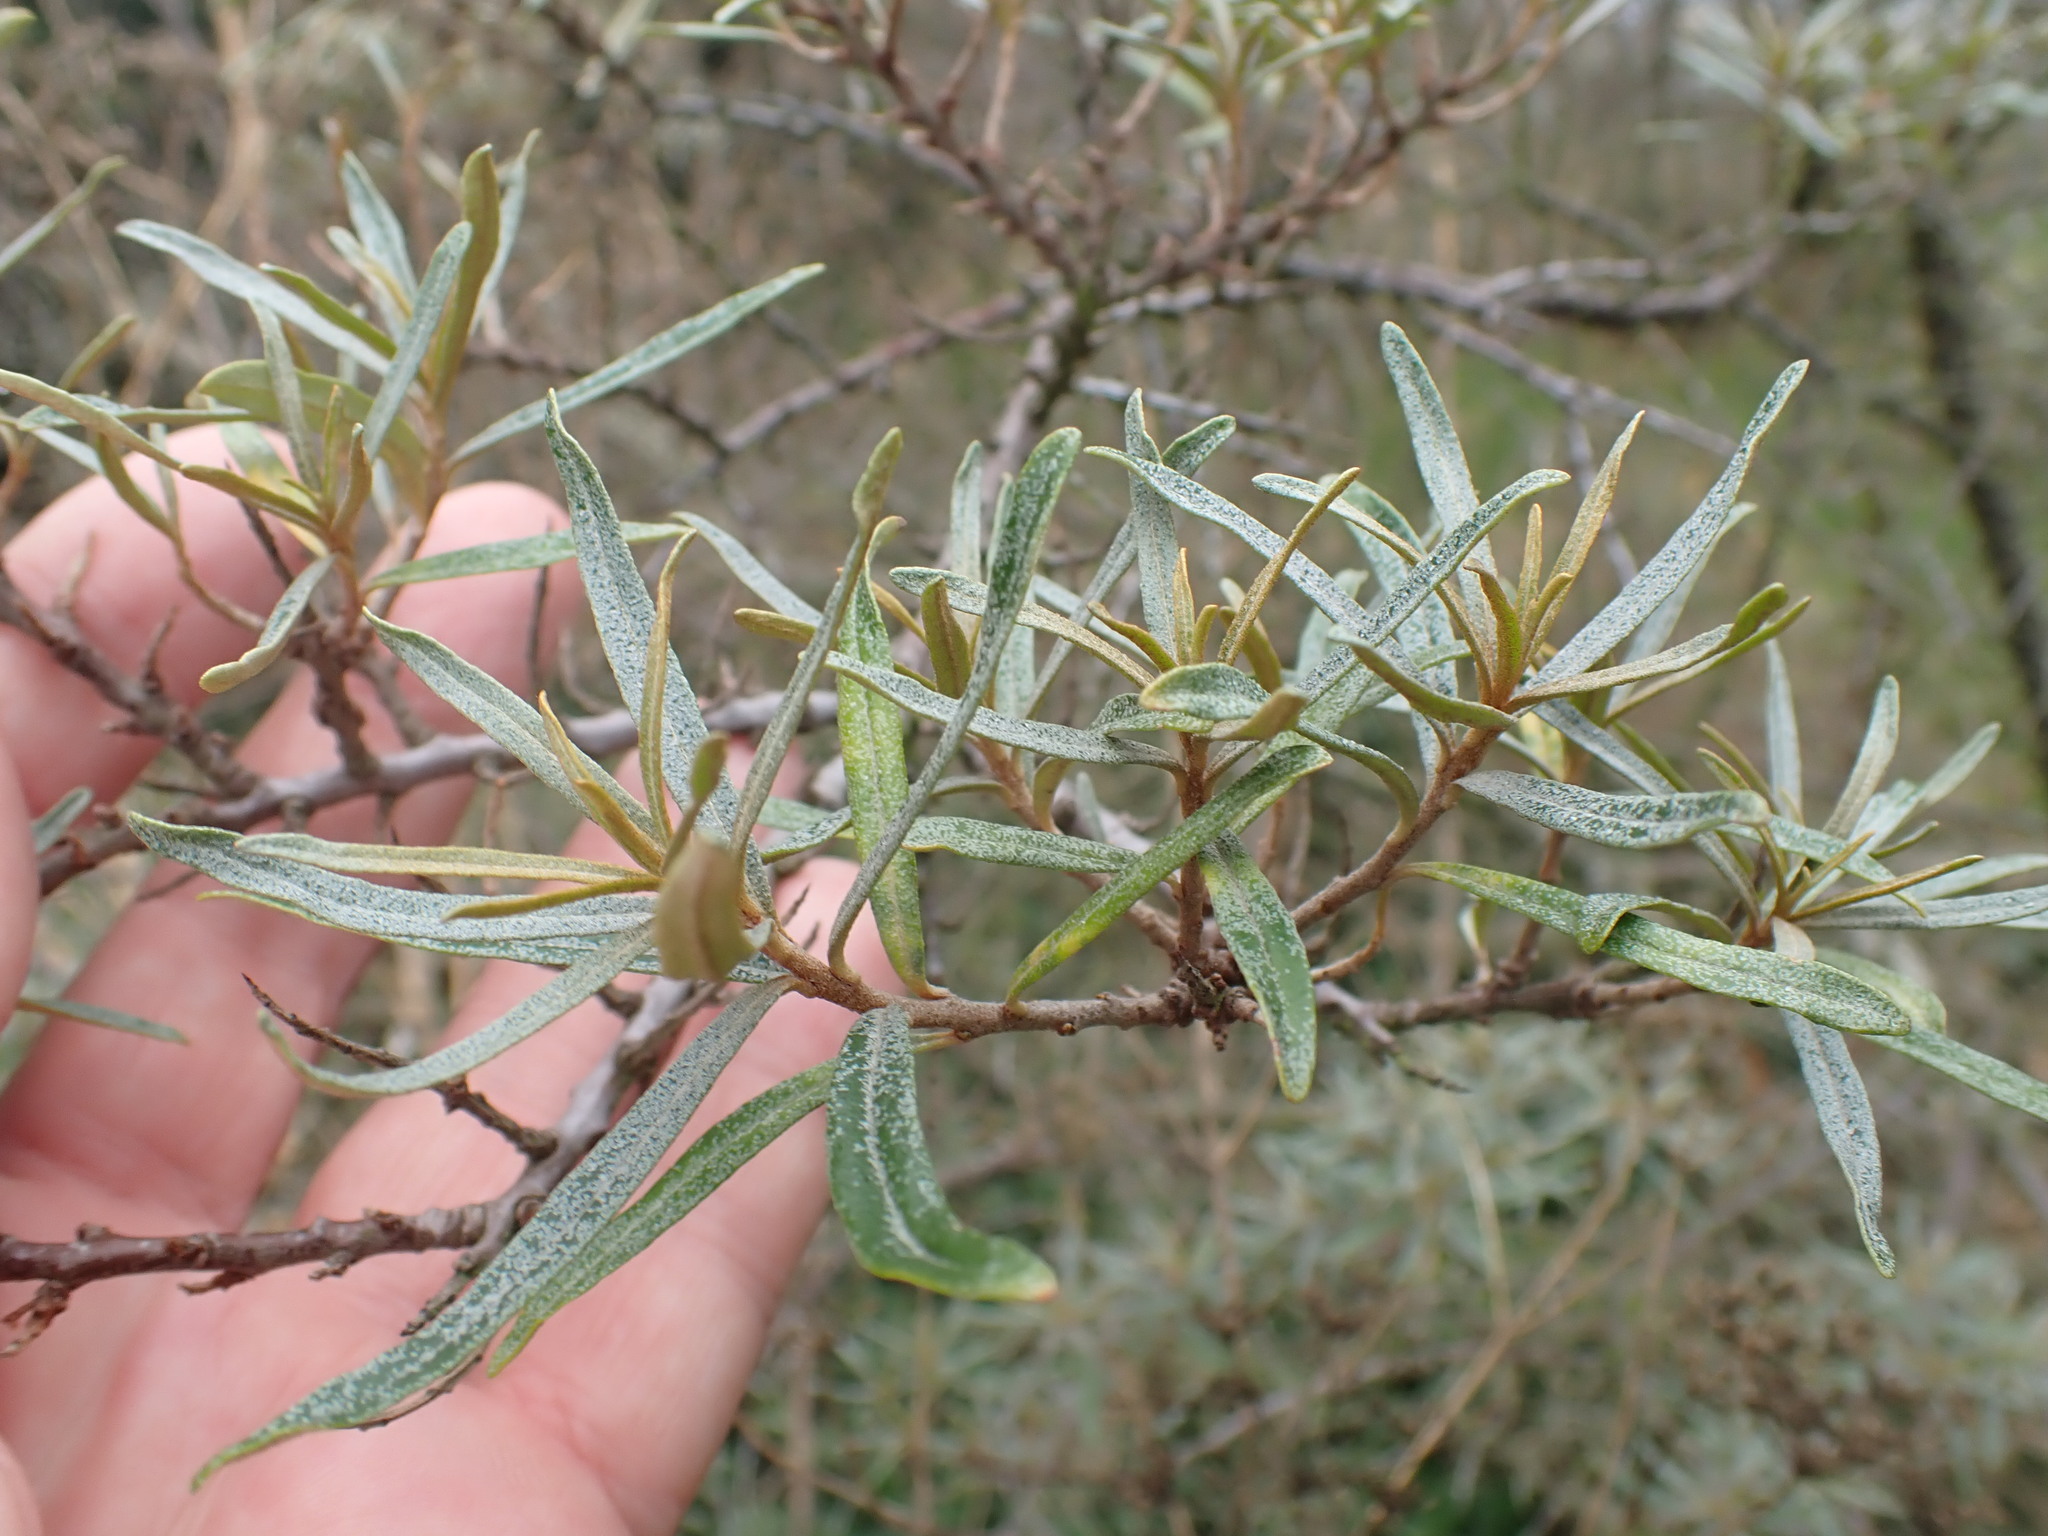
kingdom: Plantae
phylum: Tracheophyta
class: Magnoliopsida
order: Rosales
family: Elaeagnaceae
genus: Hippophae
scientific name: Hippophae rhamnoides
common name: Sea-buckthorn
